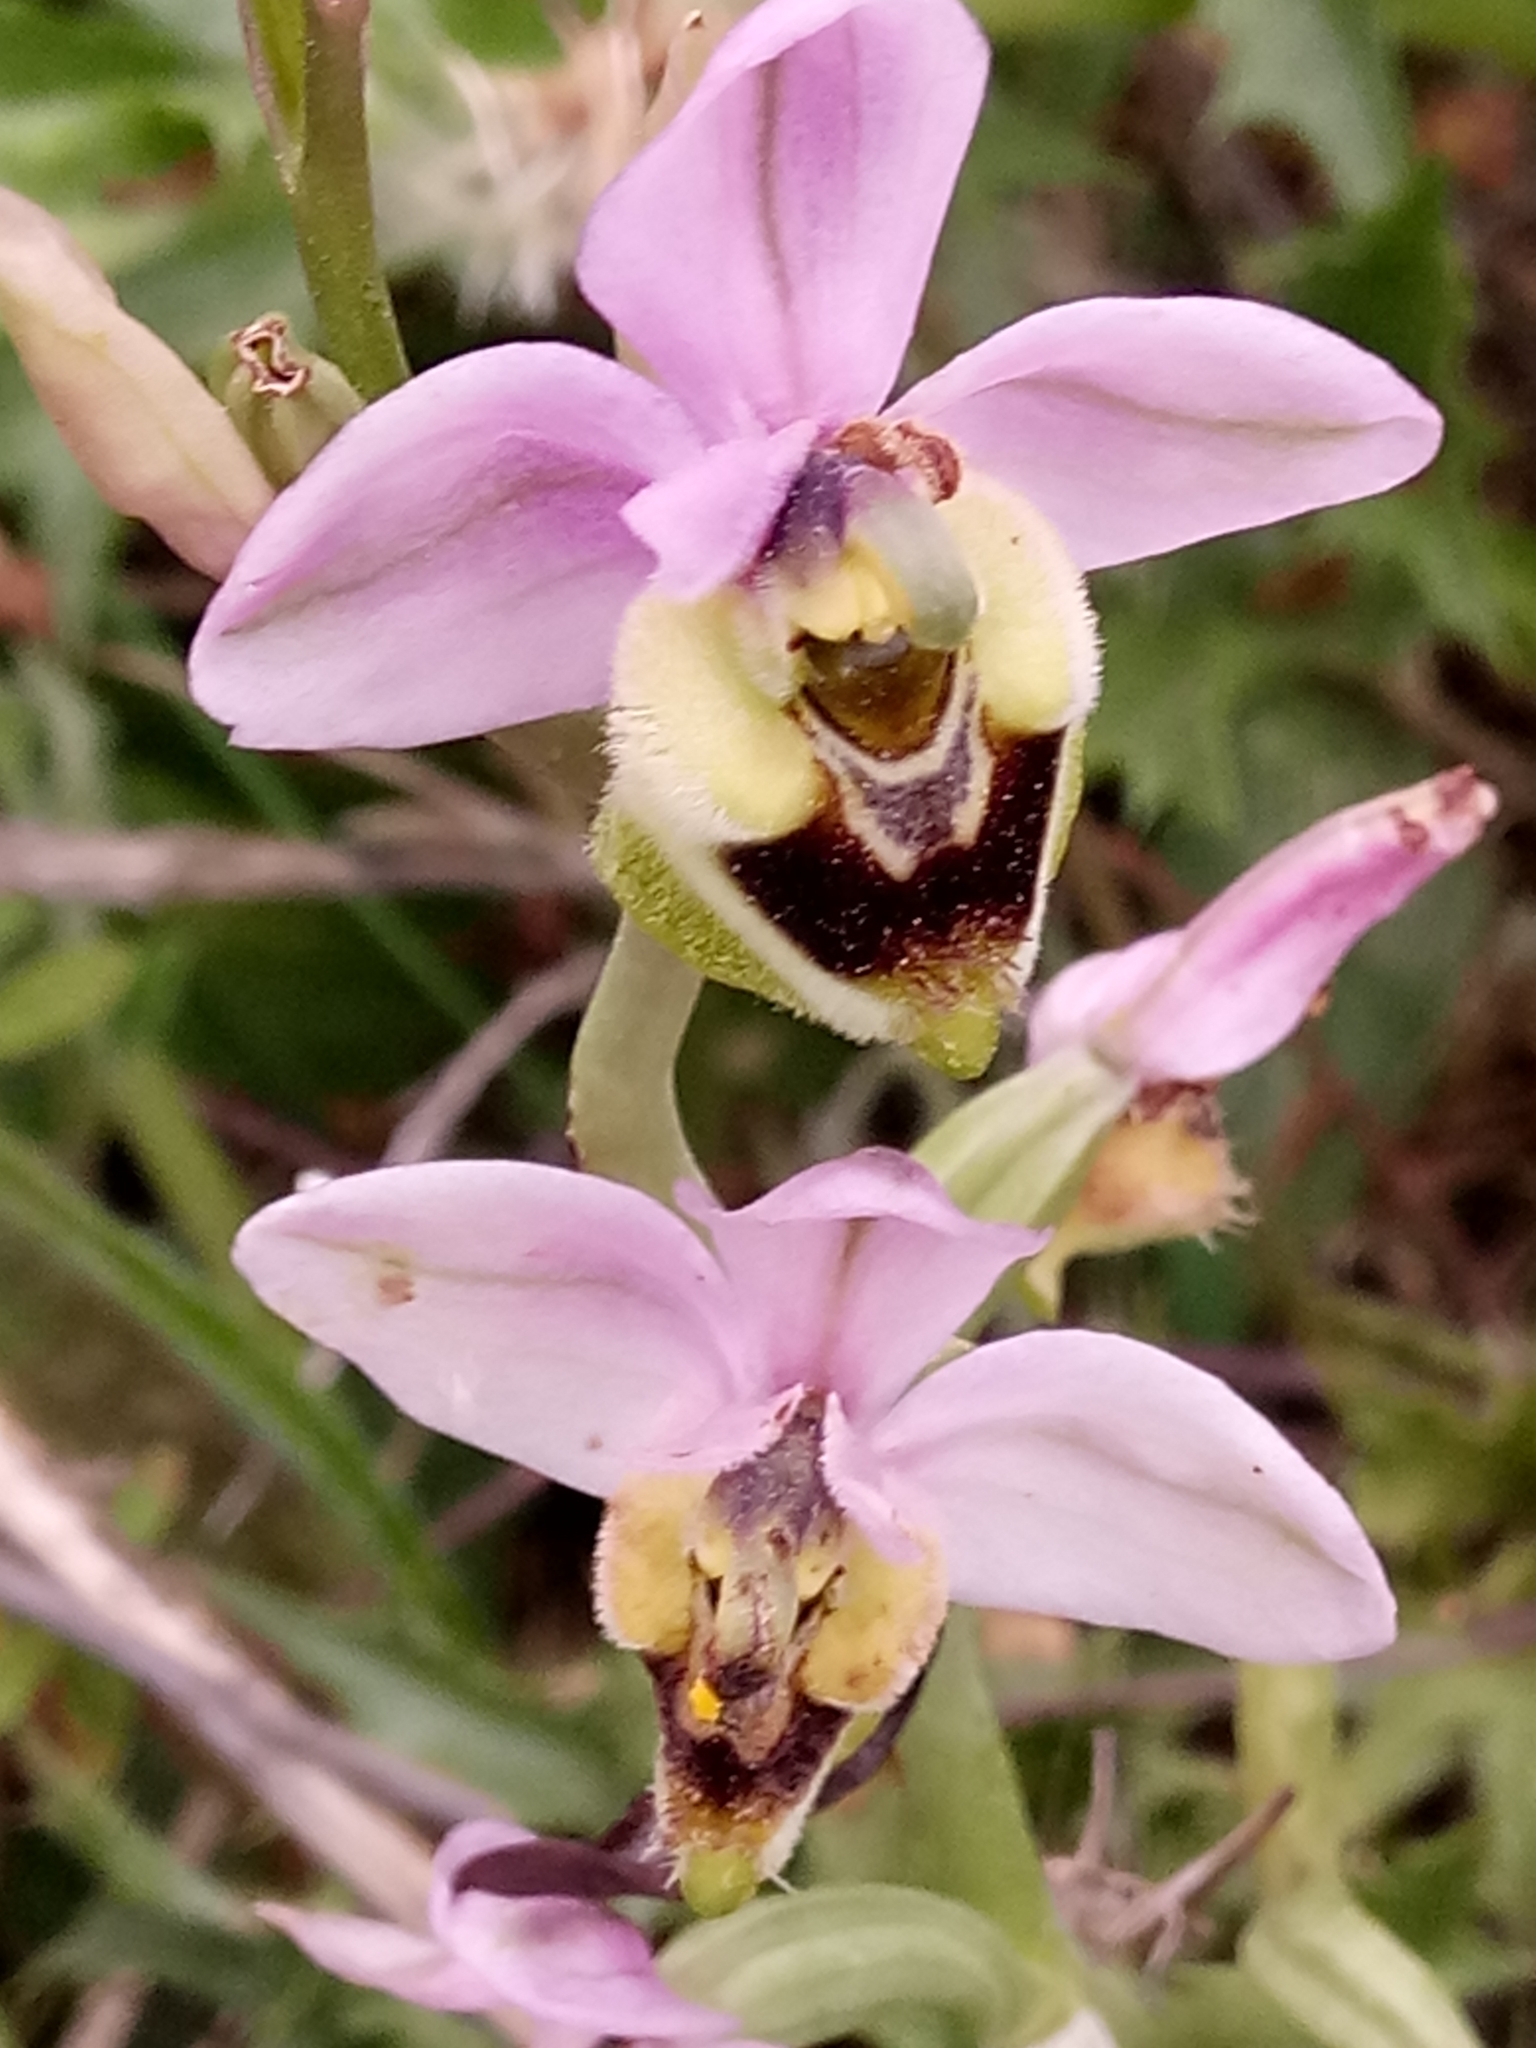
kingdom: Plantae
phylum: Tracheophyta
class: Liliopsida
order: Asparagales
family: Orchidaceae
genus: Ophrys
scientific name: Ophrys tenthredinifera
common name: Sawfly orchid
